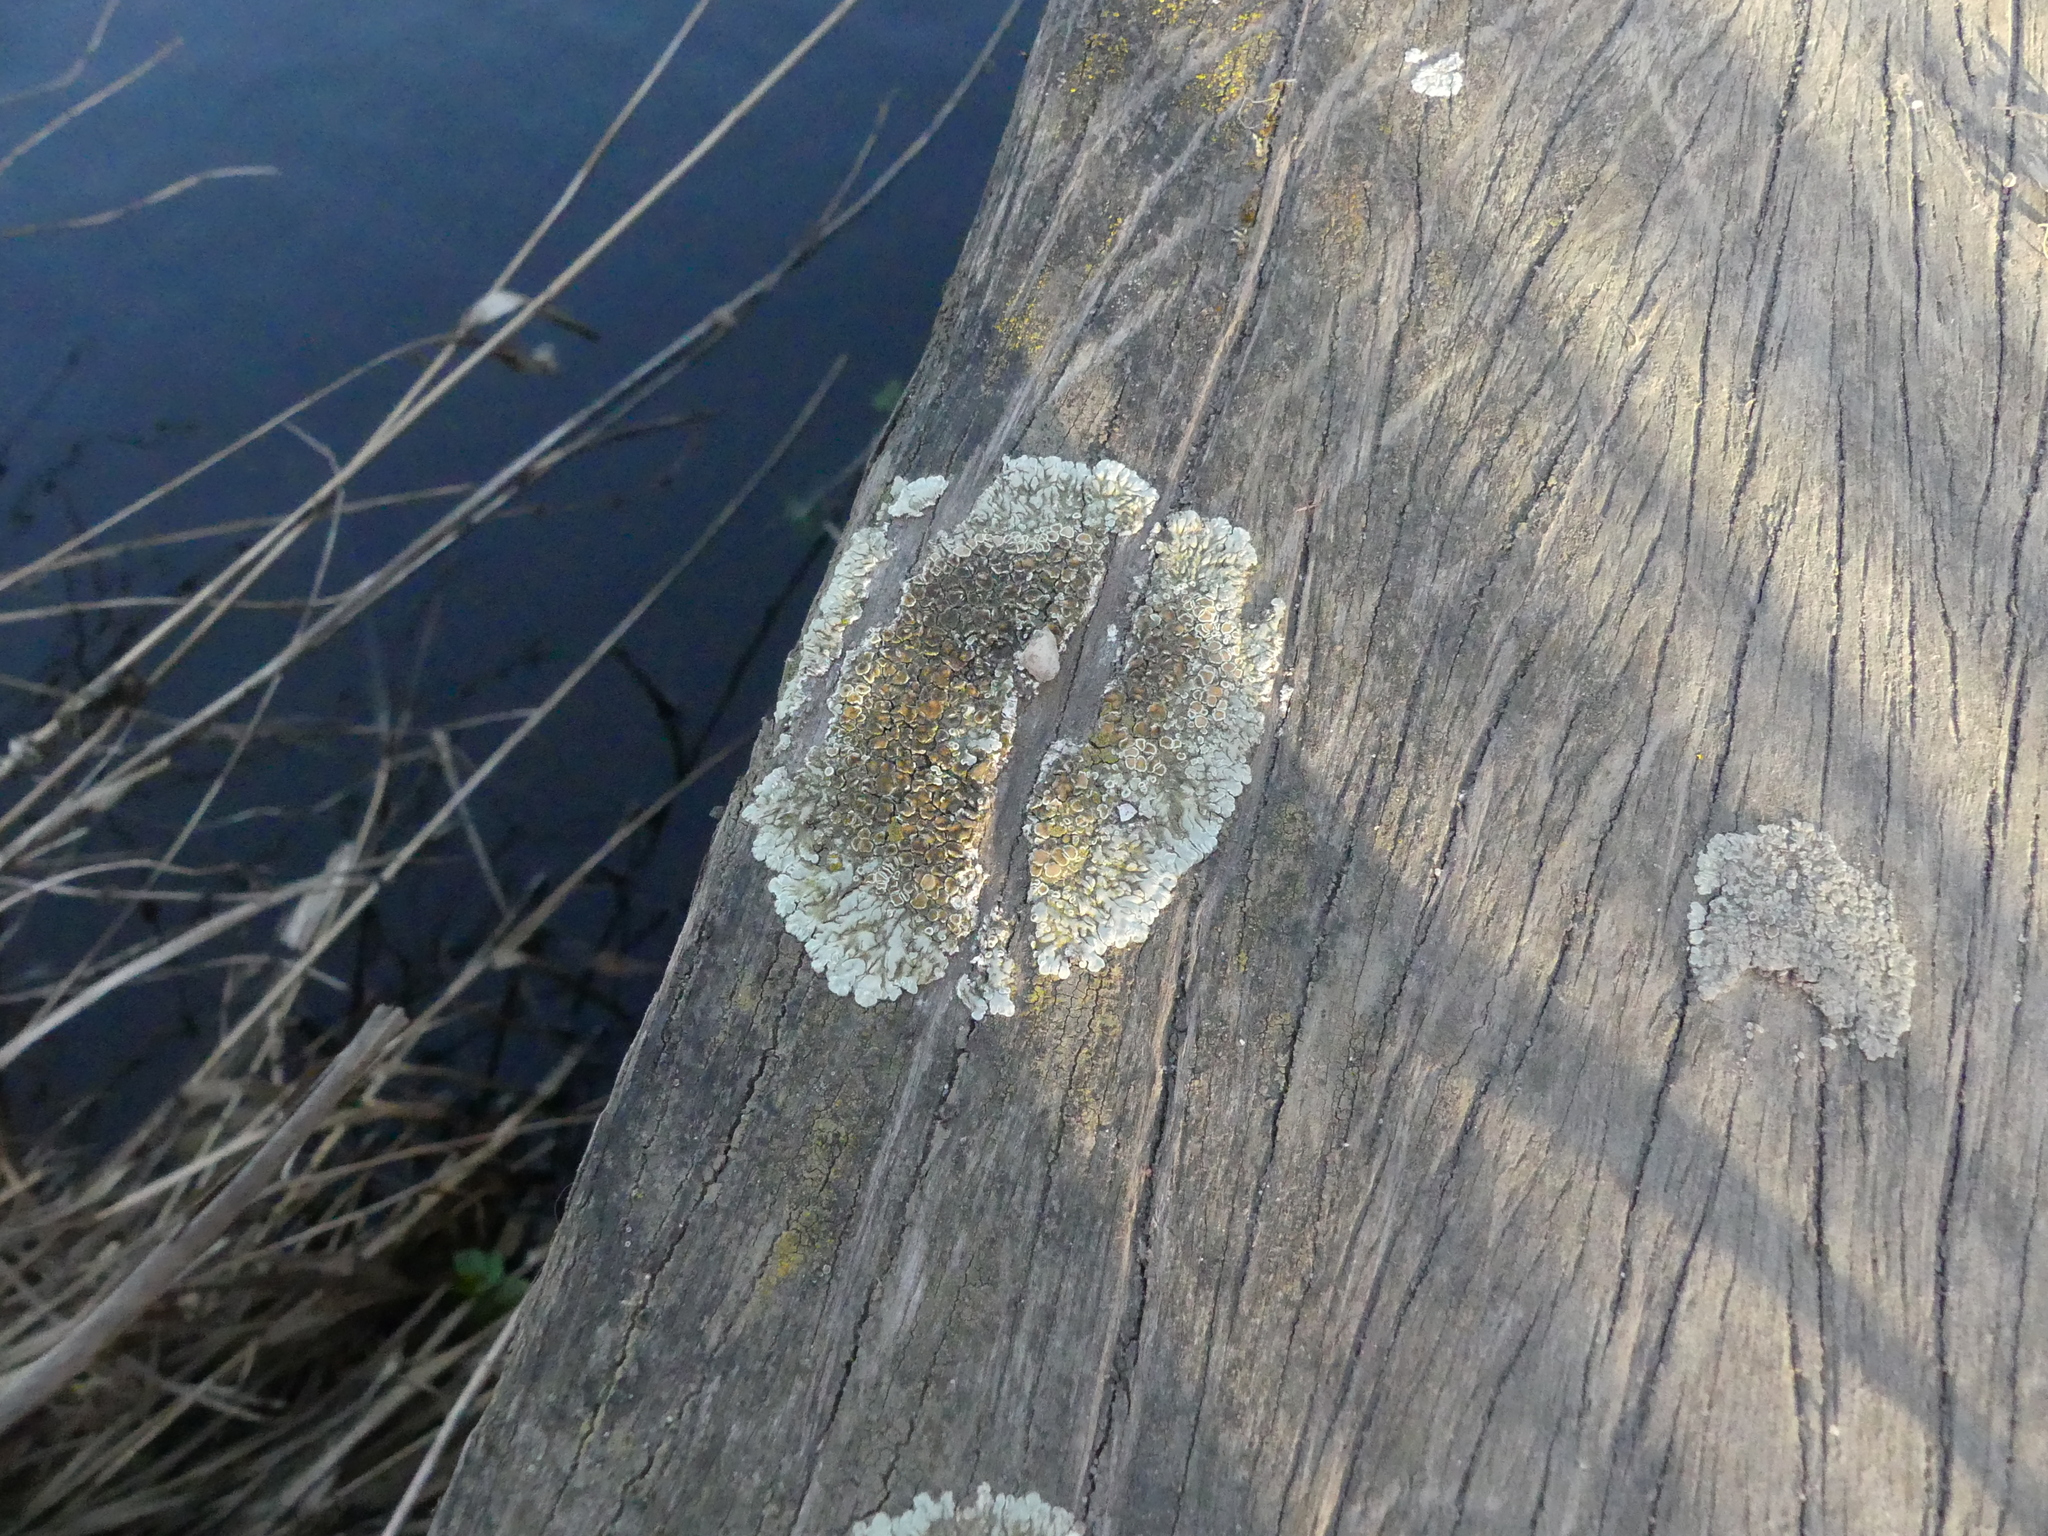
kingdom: Fungi
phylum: Ascomycota
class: Lecanoromycetes
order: Lecanorales
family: Lecanoraceae
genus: Protoparmeliopsis
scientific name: Protoparmeliopsis muralis
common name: Stonewall rim lichen
